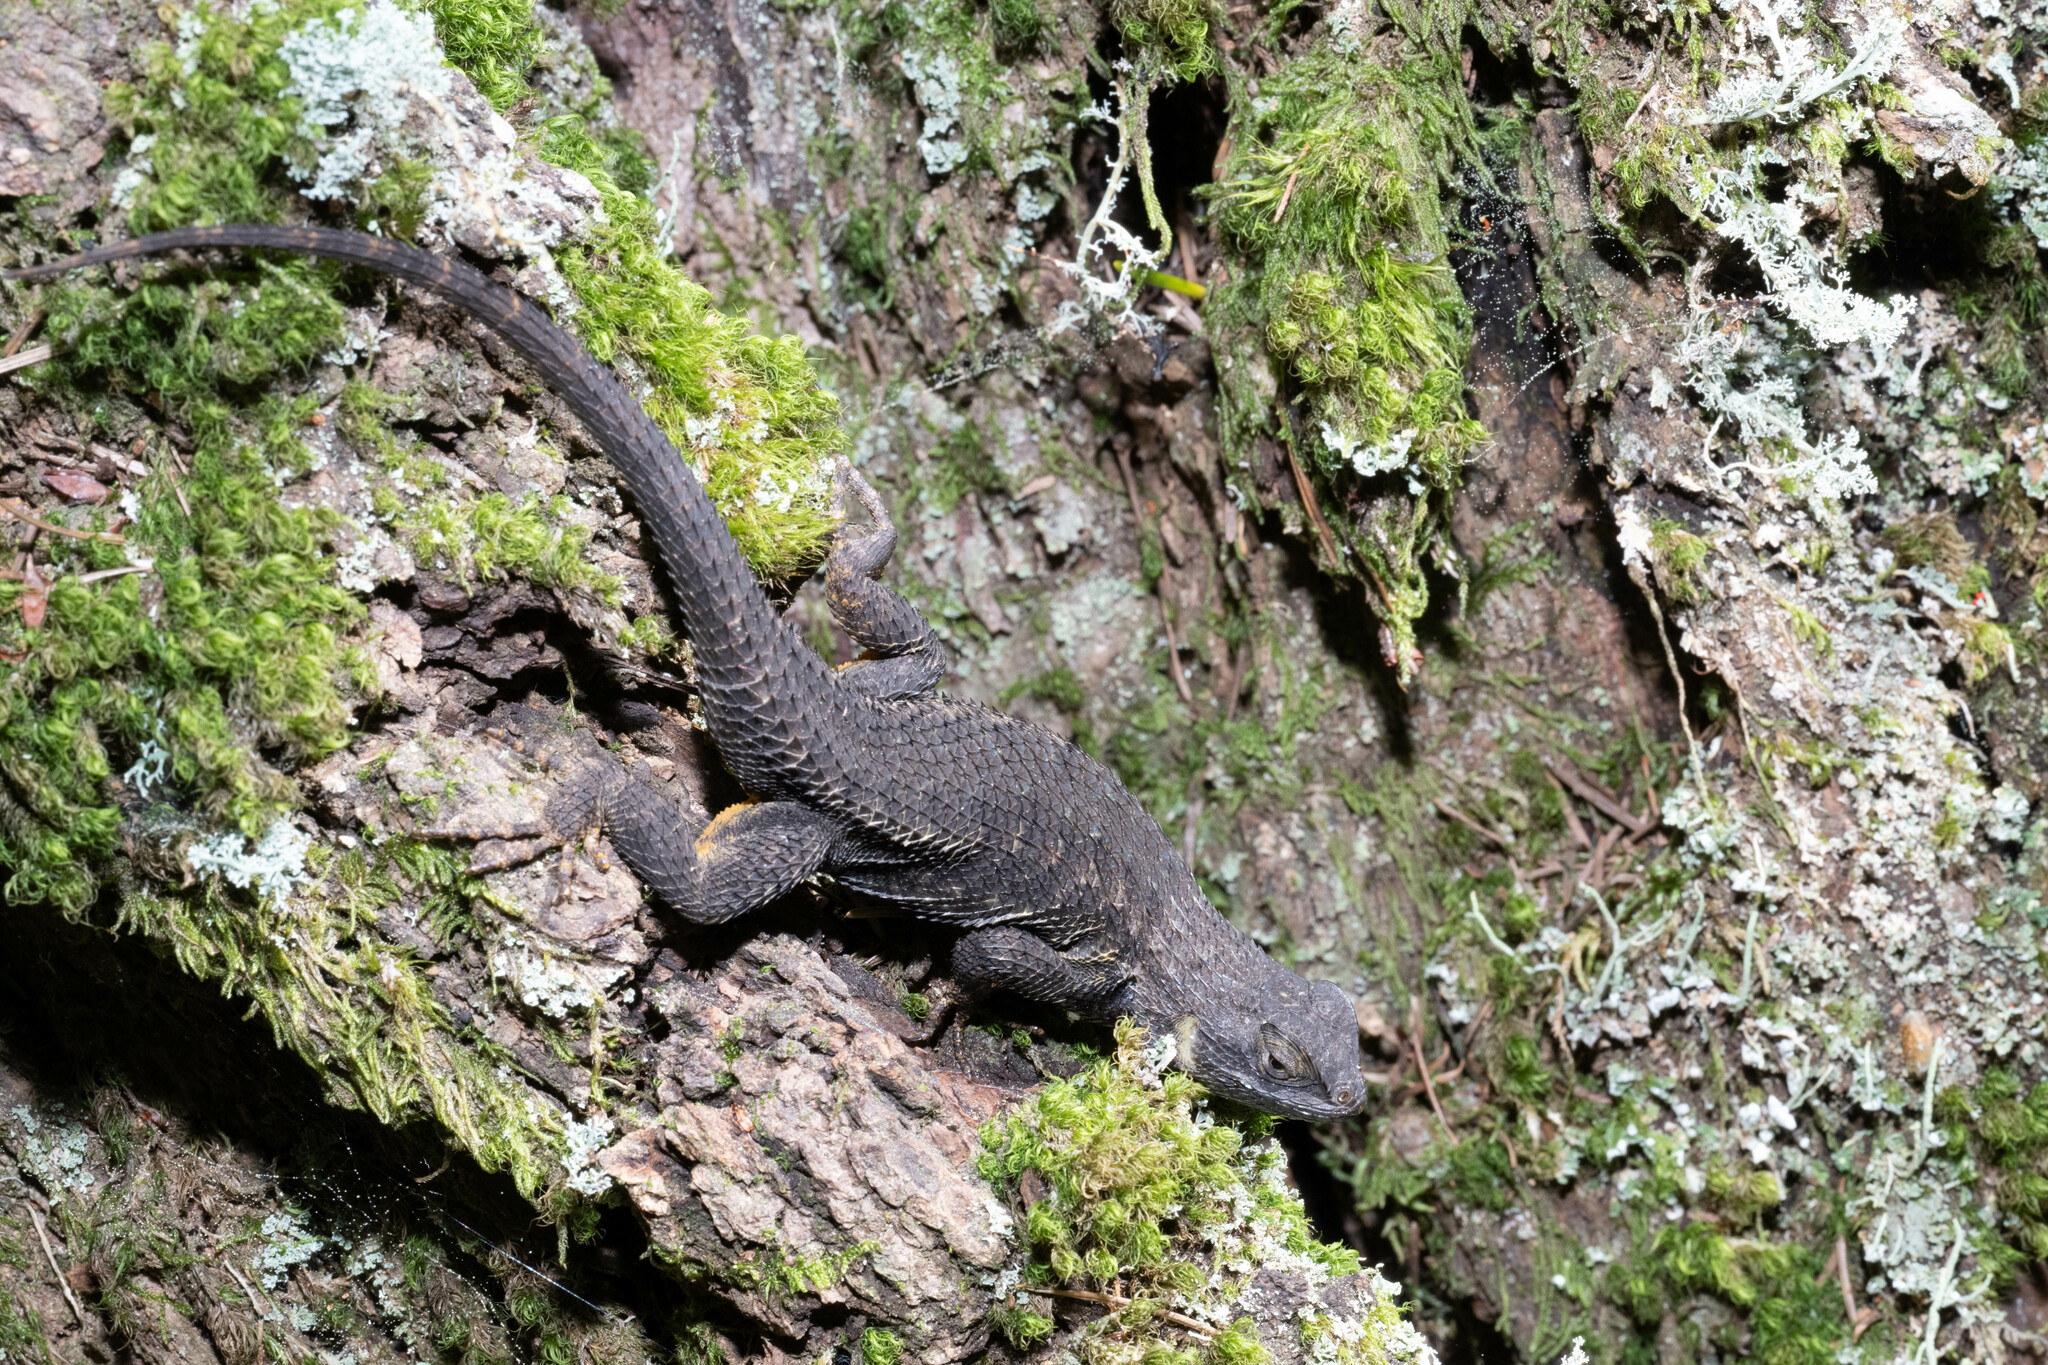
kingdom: Animalia
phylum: Chordata
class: Squamata
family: Phrynosomatidae
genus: Sceloporus
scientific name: Sceloporus occidentalis
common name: Western fence lizard
